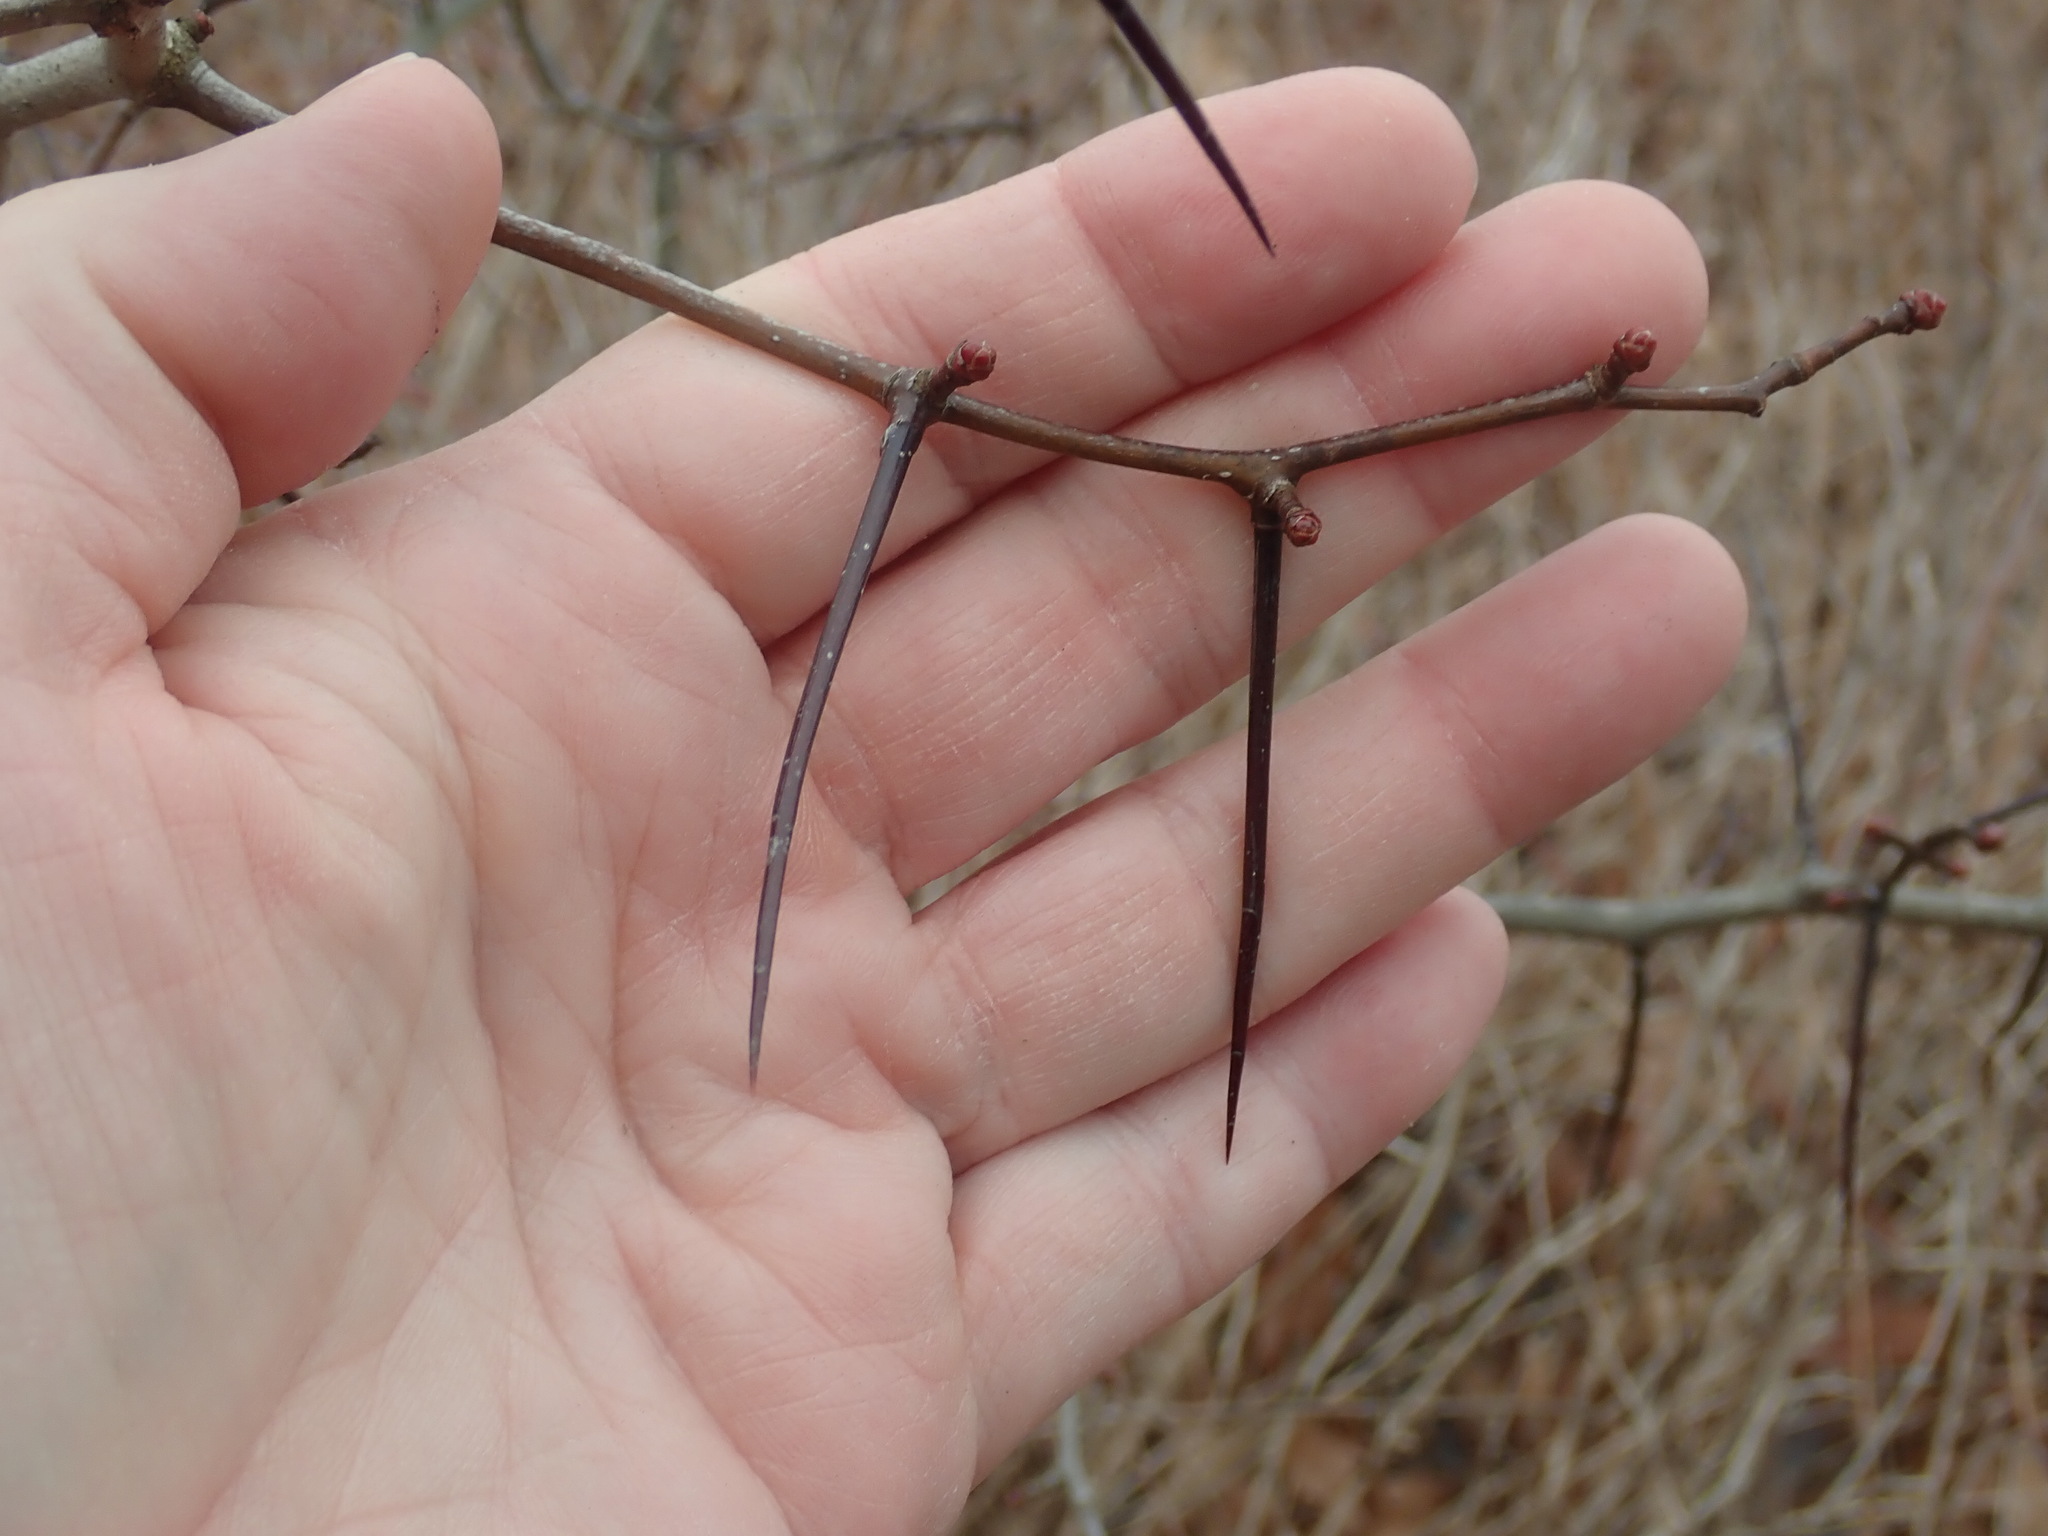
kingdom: Plantae
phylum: Tracheophyta
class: Magnoliopsida
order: Rosales
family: Rosaceae
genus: Crataegus
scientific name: Crataegus
